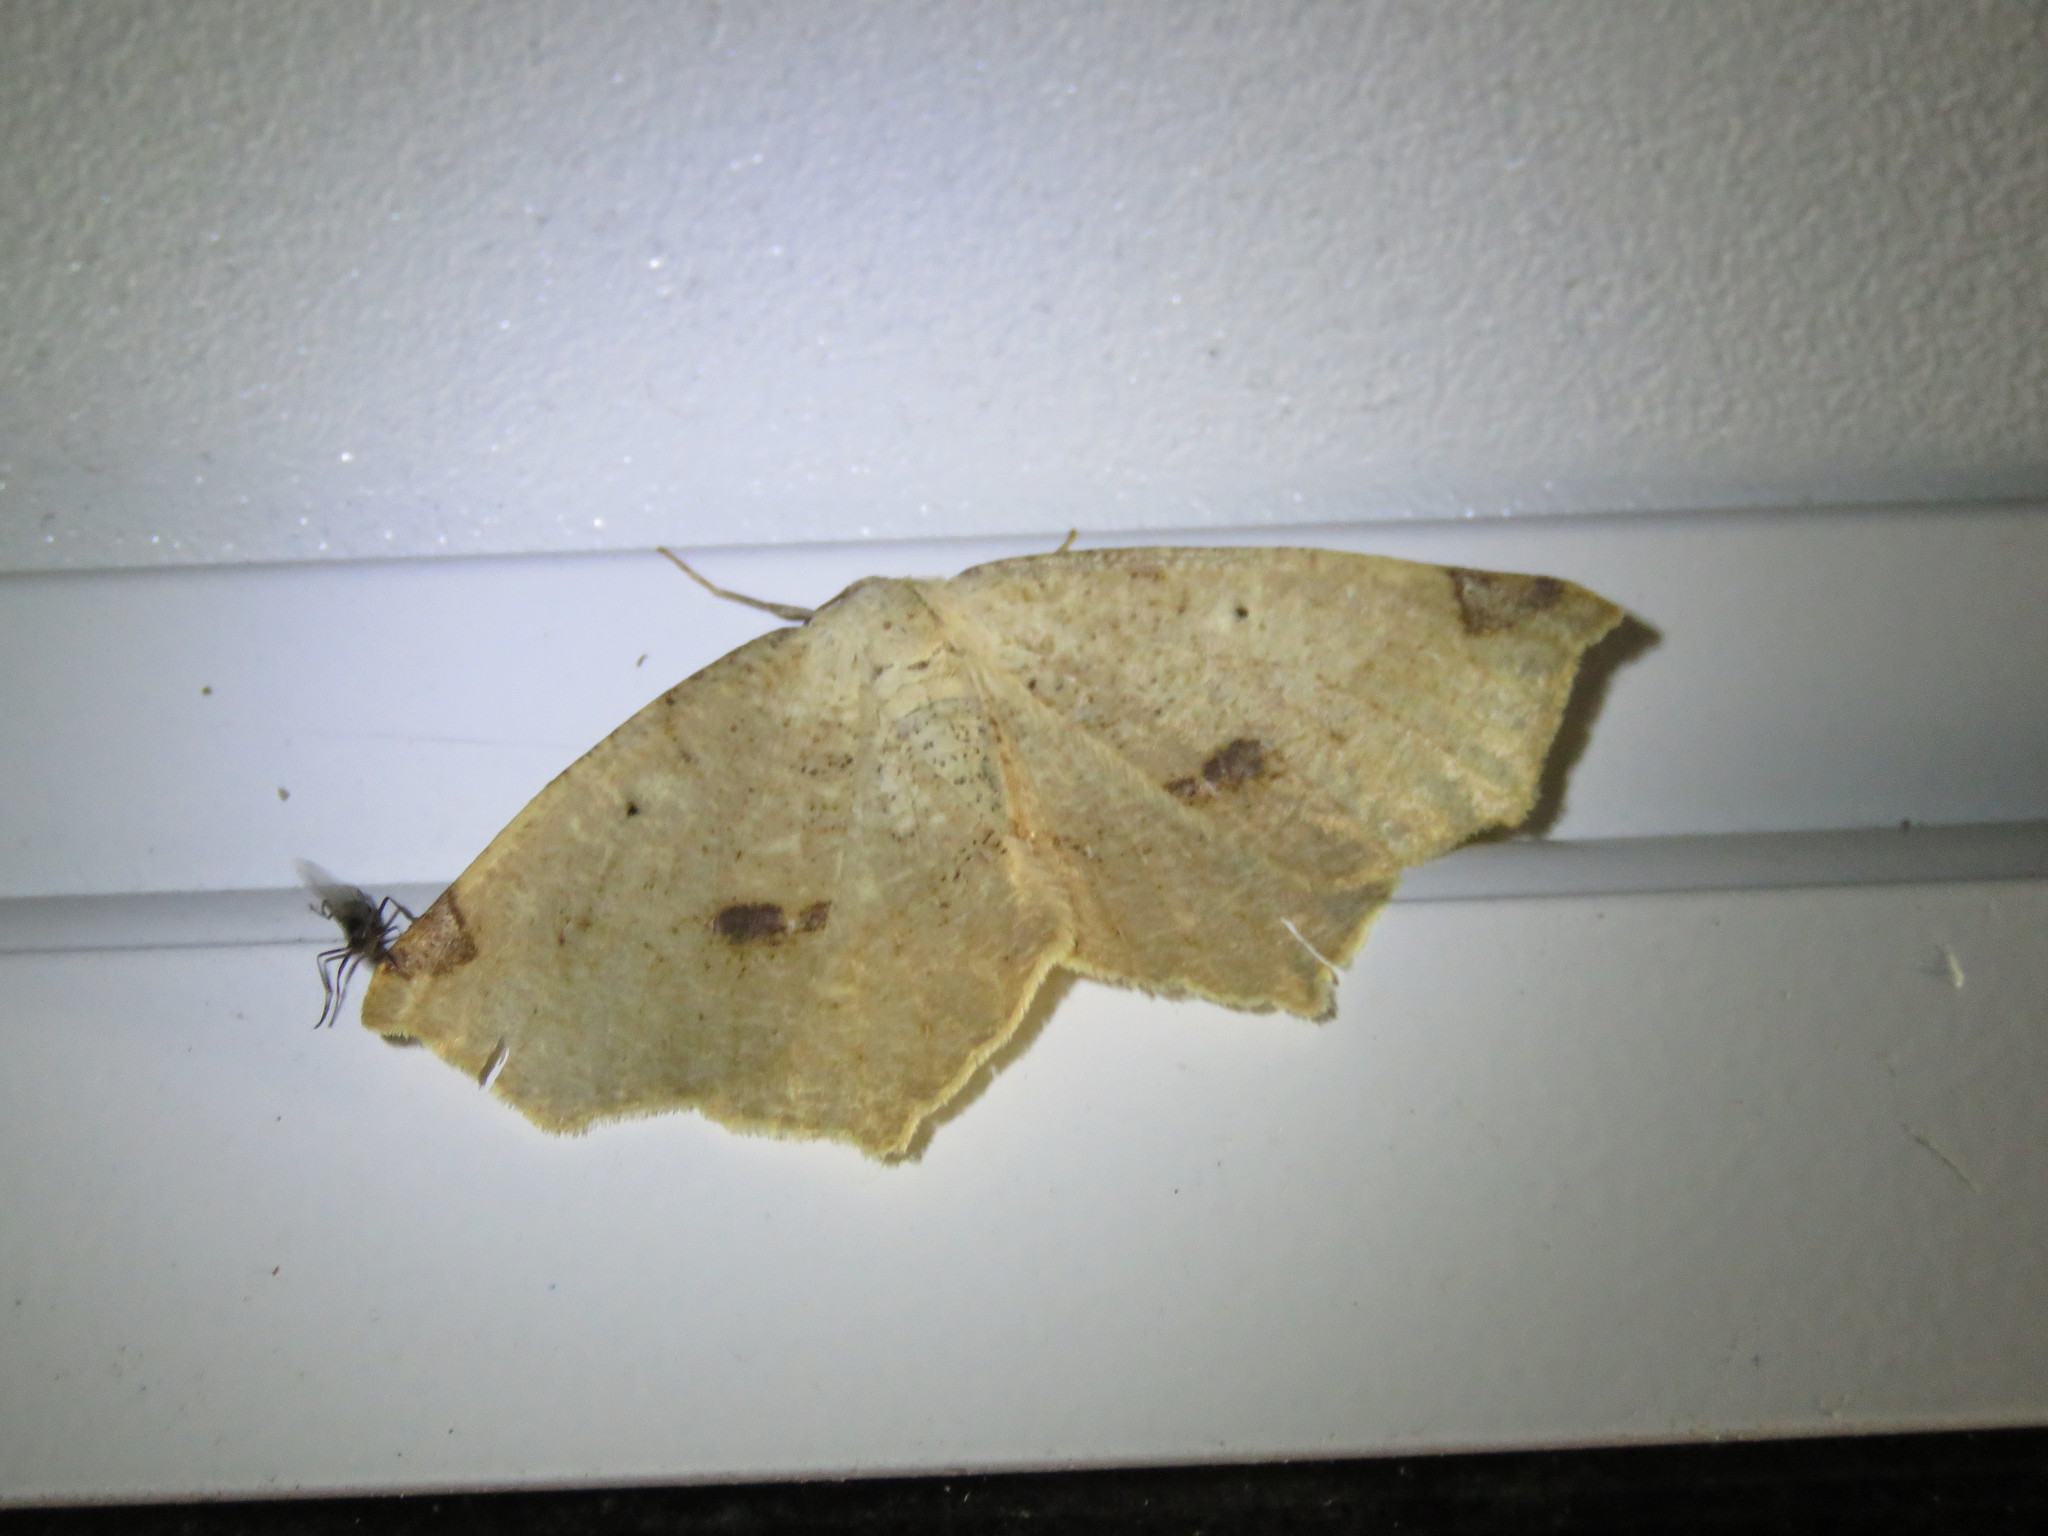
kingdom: Animalia
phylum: Arthropoda
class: Insecta
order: Lepidoptera
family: Geometridae
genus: Antepione
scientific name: Antepione thisoaria
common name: Variable antipione
